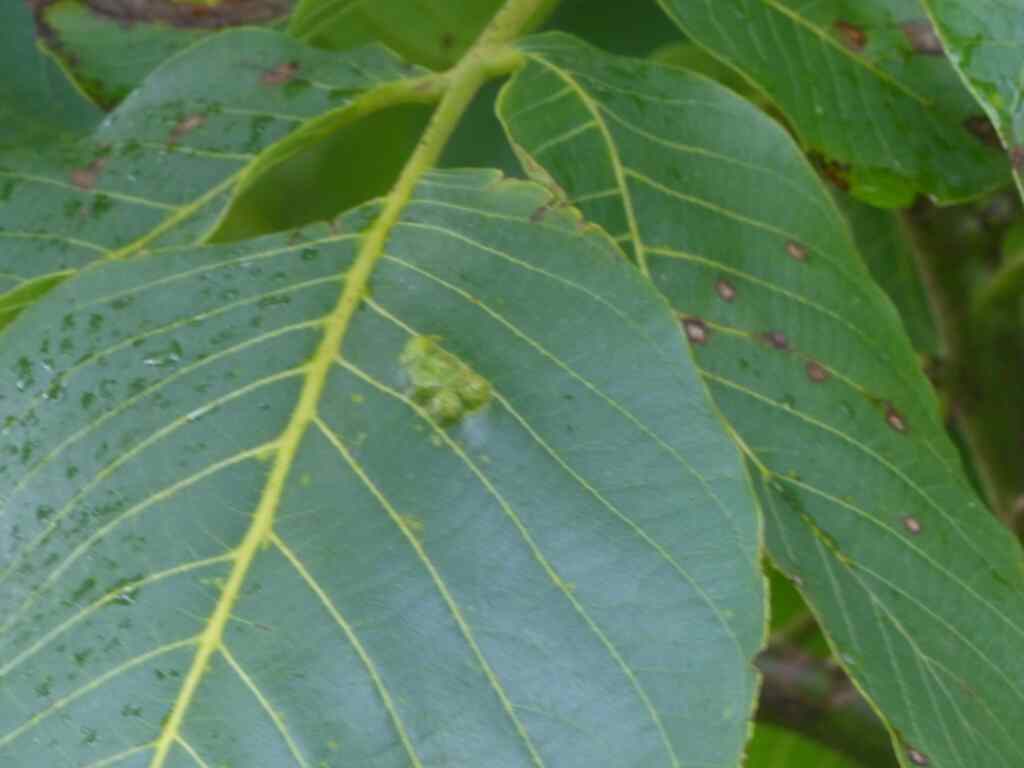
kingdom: Animalia
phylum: Arthropoda
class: Arachnida
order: Trombidiformes
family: Eriophyidae
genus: Aceria
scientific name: Aceria erinea
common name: Persian walnut erineum mite
